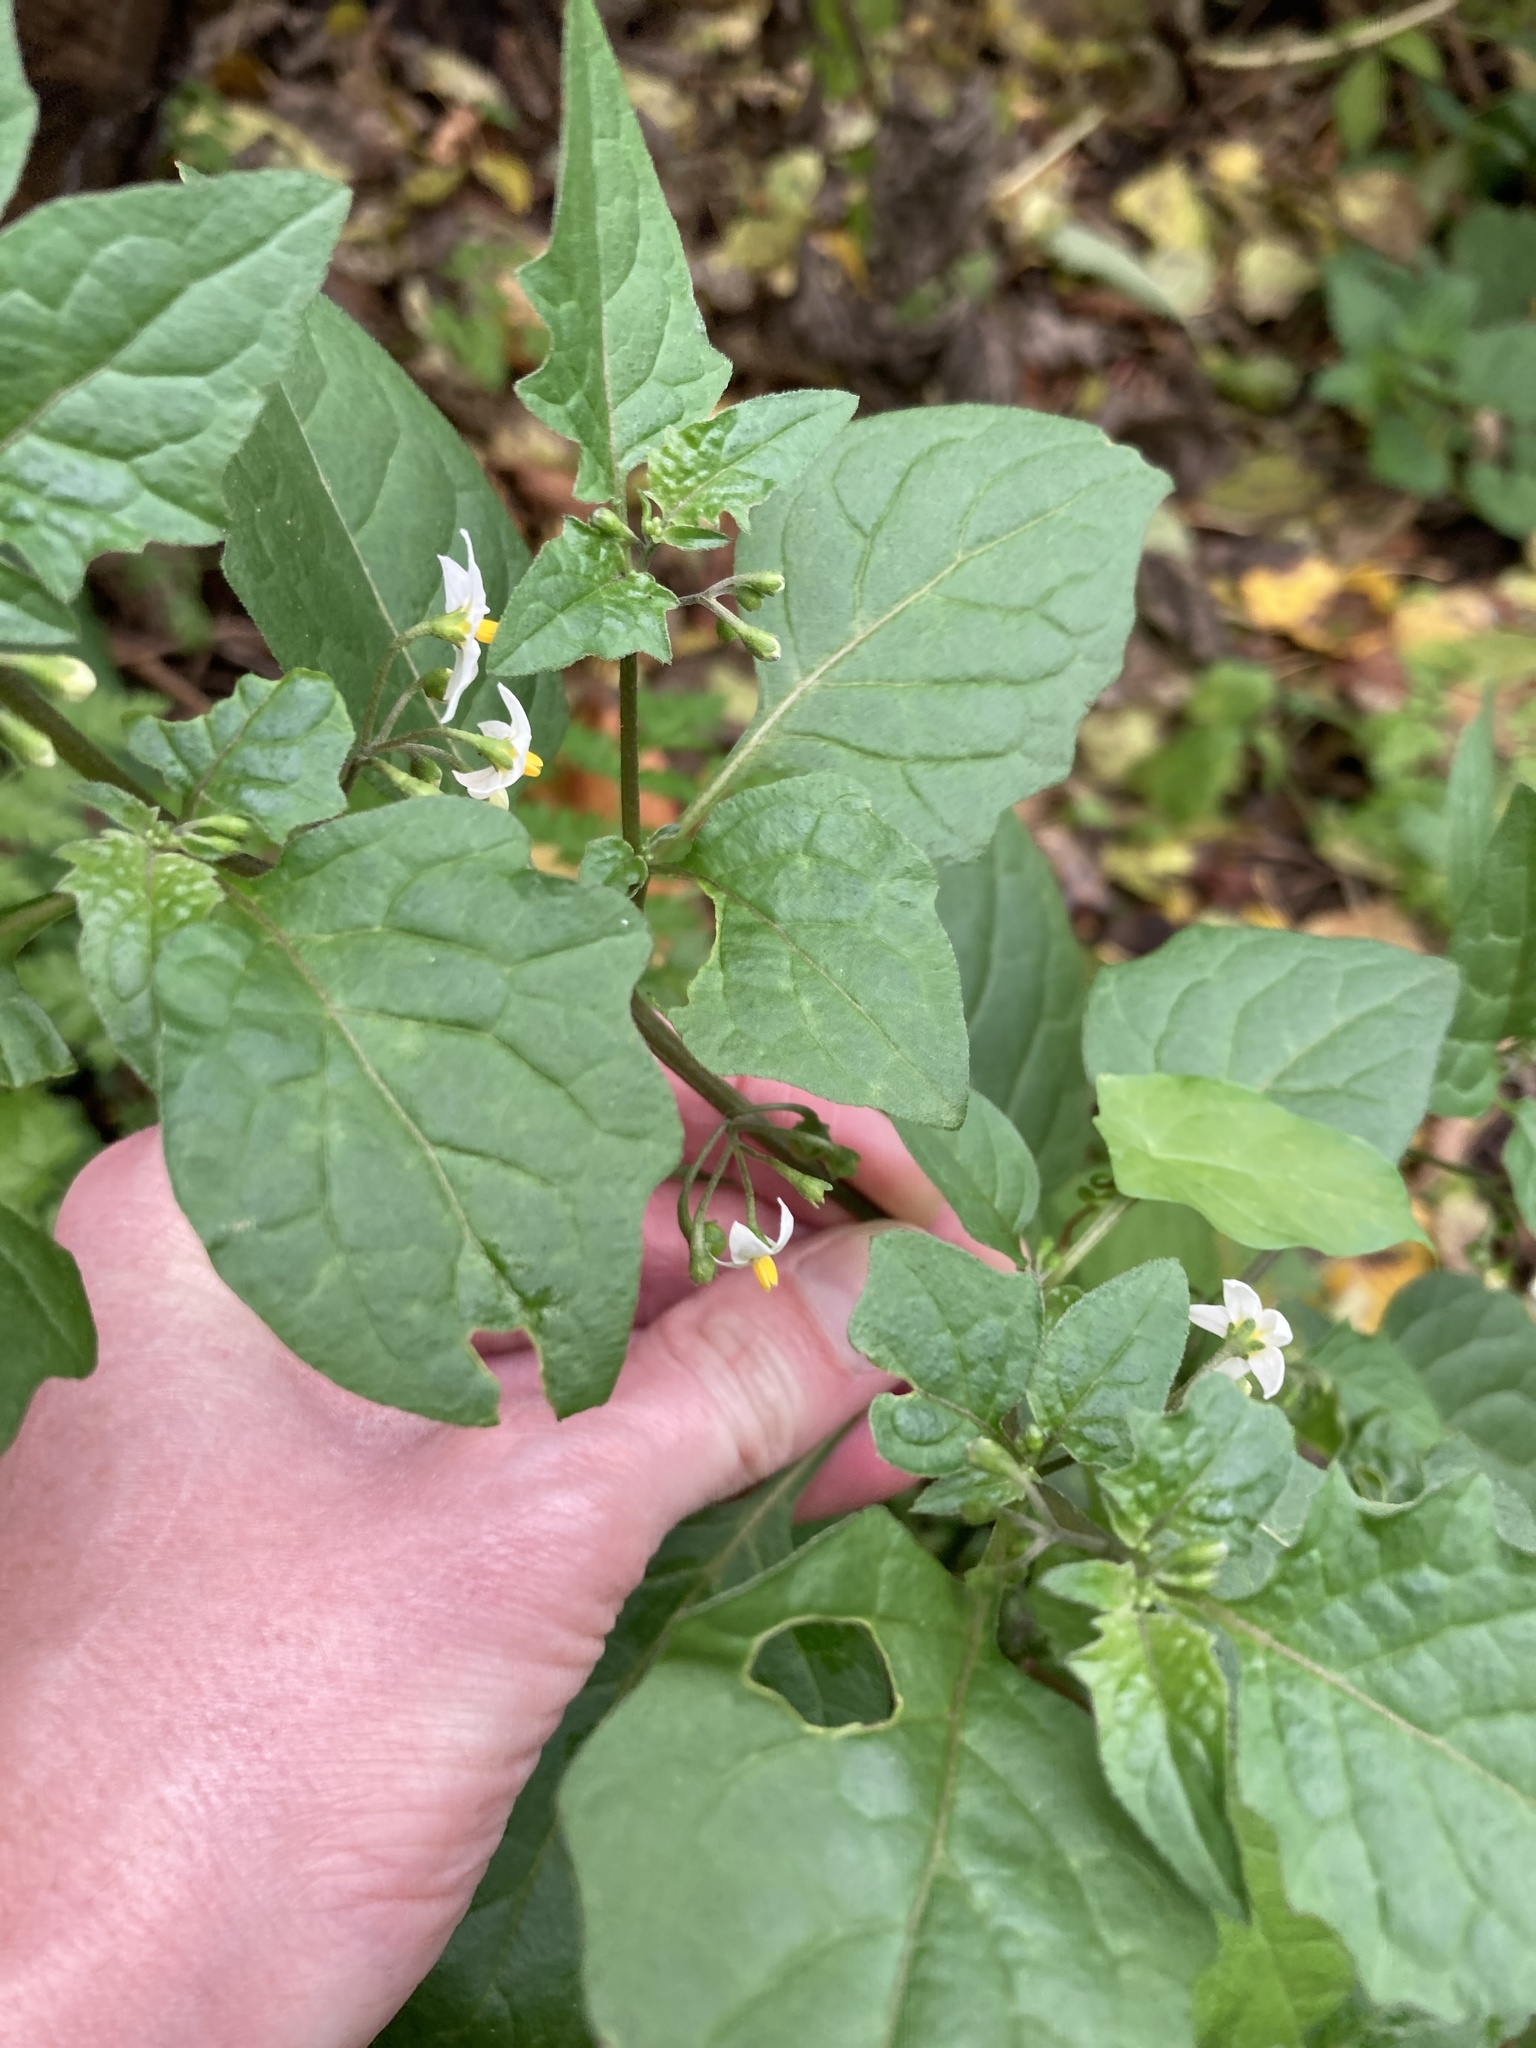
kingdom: Plantae
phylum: Tracheophyta
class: Magnoliopsida
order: Solanales
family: Solanaceae
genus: Solanum
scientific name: Solanum nigrum
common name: Black nightshade
